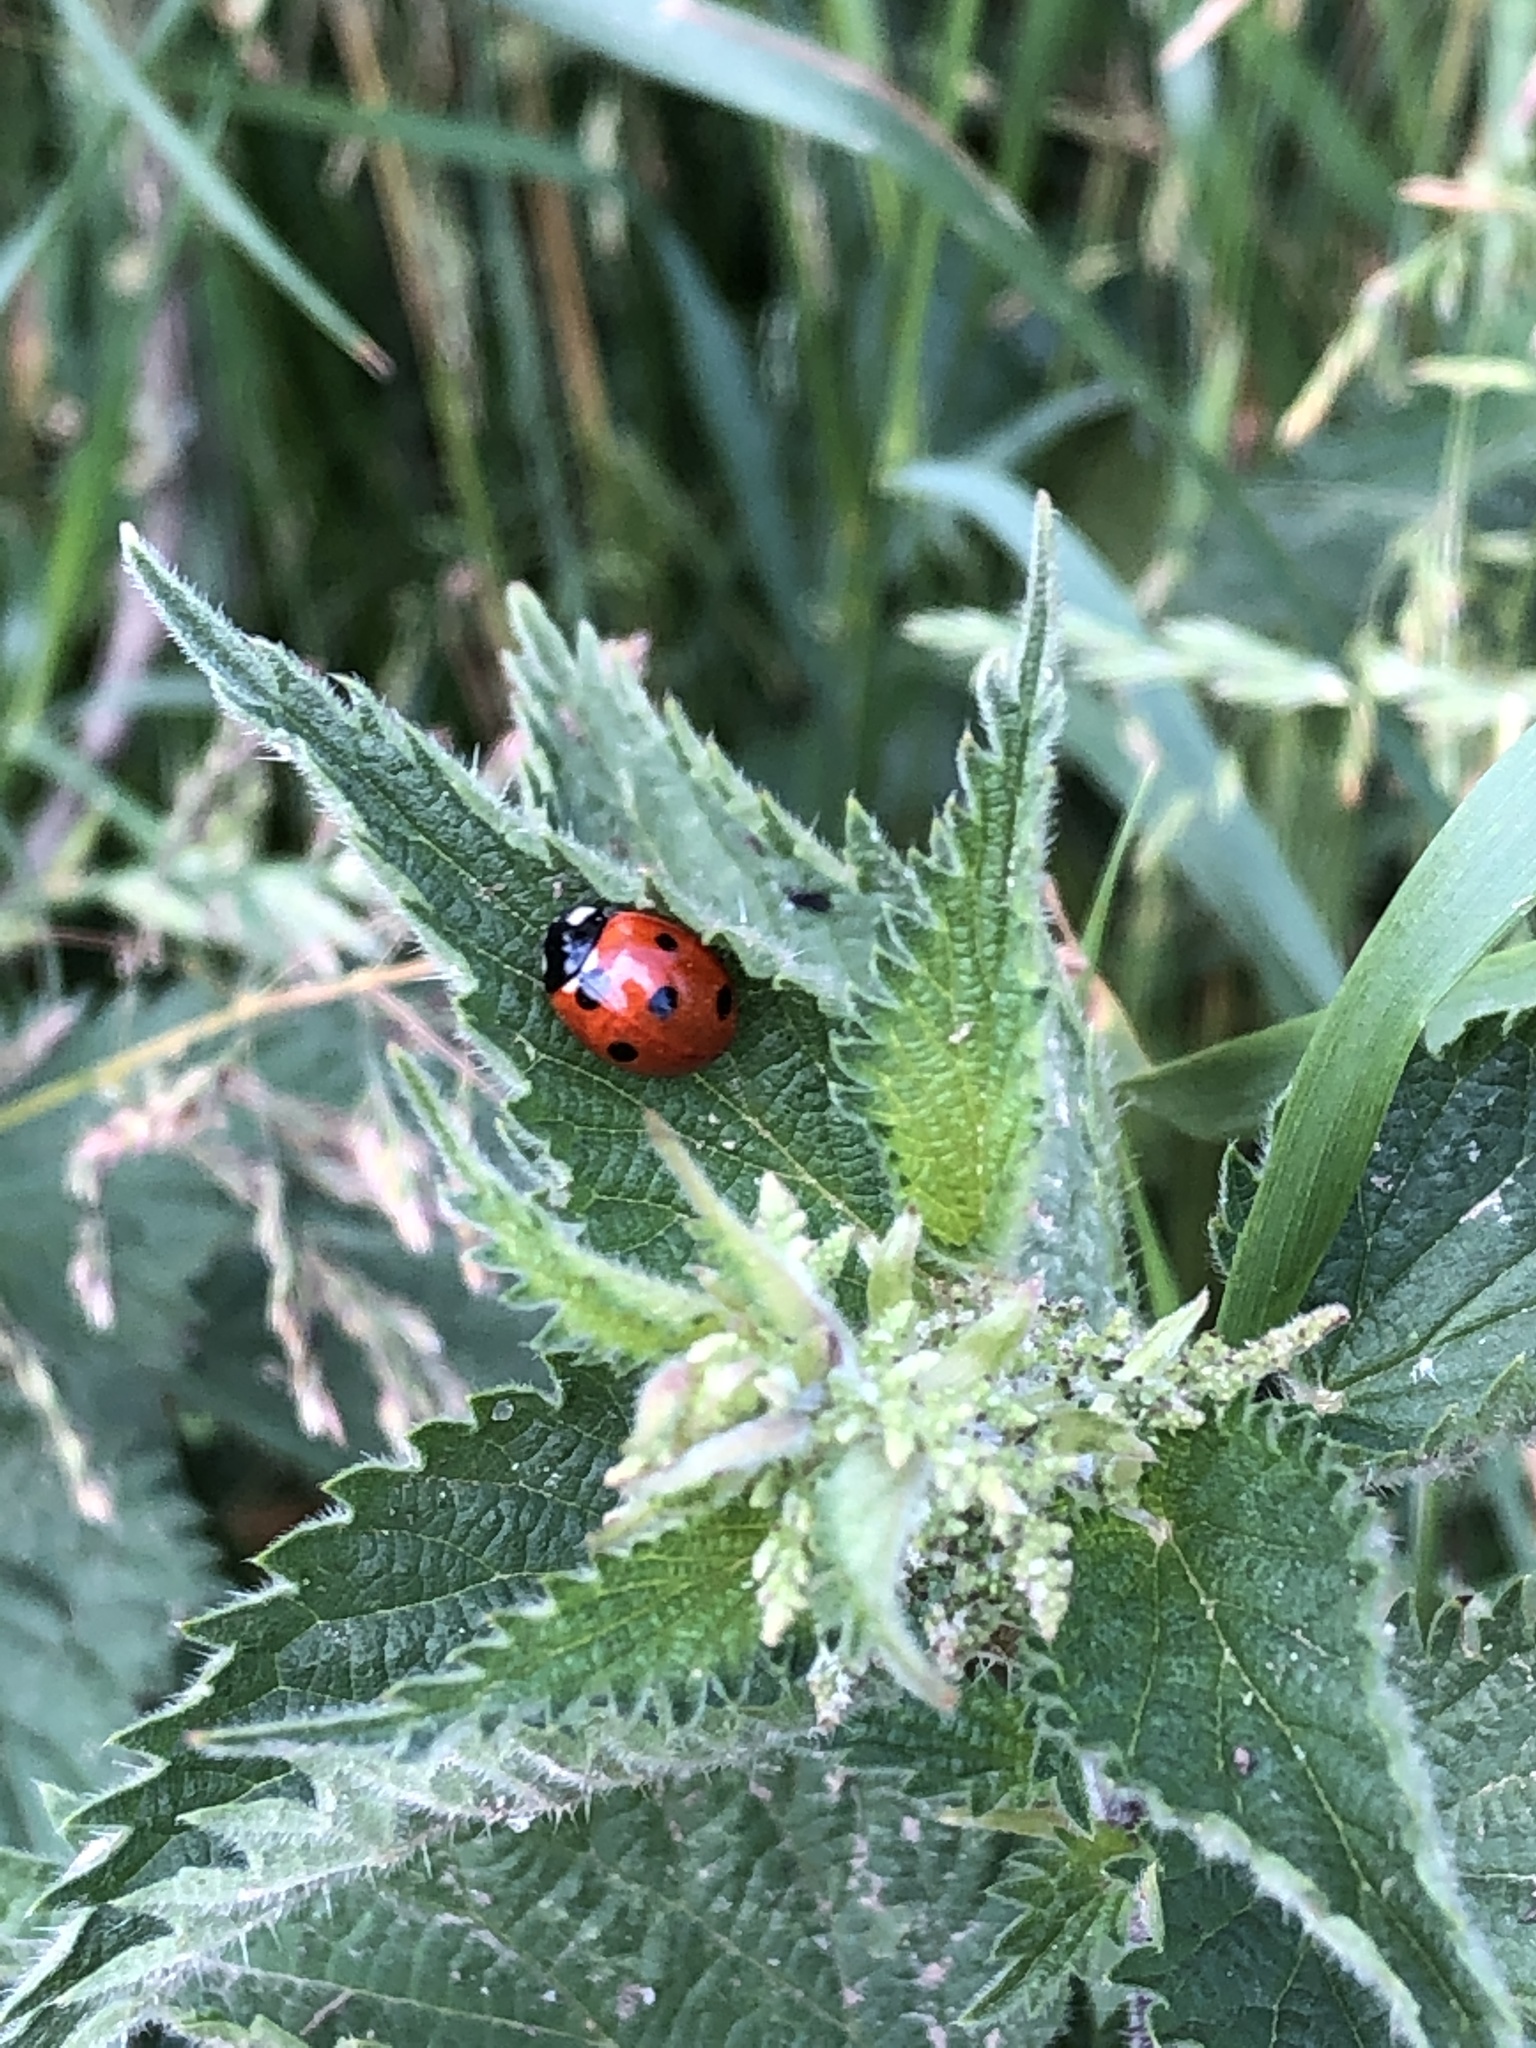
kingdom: Animalia
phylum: Arthropoda
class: Insecta
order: Coleoptera
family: Coccinellidae
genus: Coccinella
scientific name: Coccinella septempunctata
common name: Sevenspotted lady beetle
